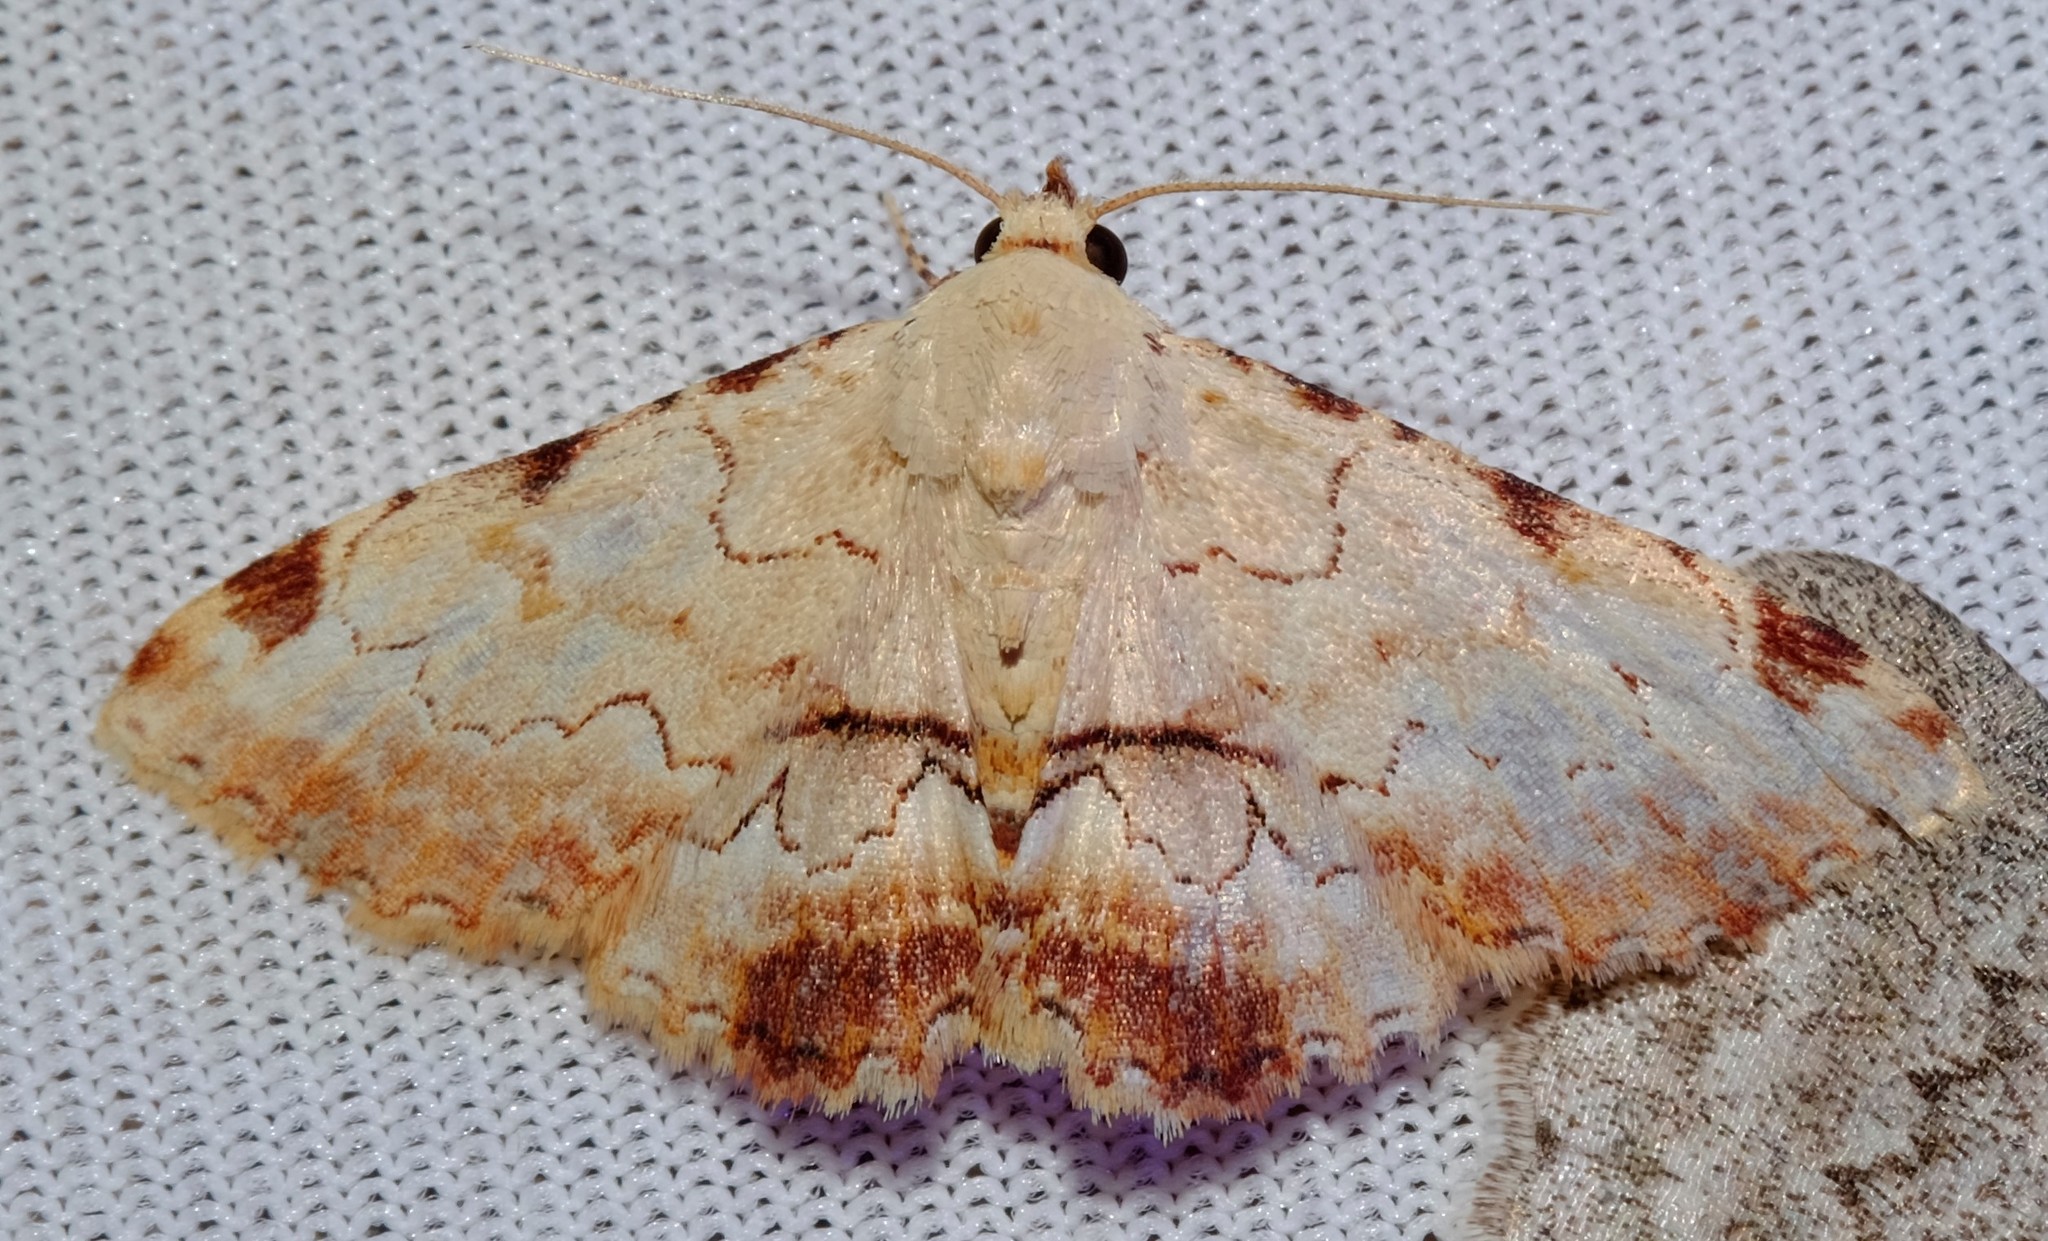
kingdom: Animalia
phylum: Arthropoda
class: Insecta
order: Lepidoptera
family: Erebidae
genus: Sandava
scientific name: Sandava xylistis
